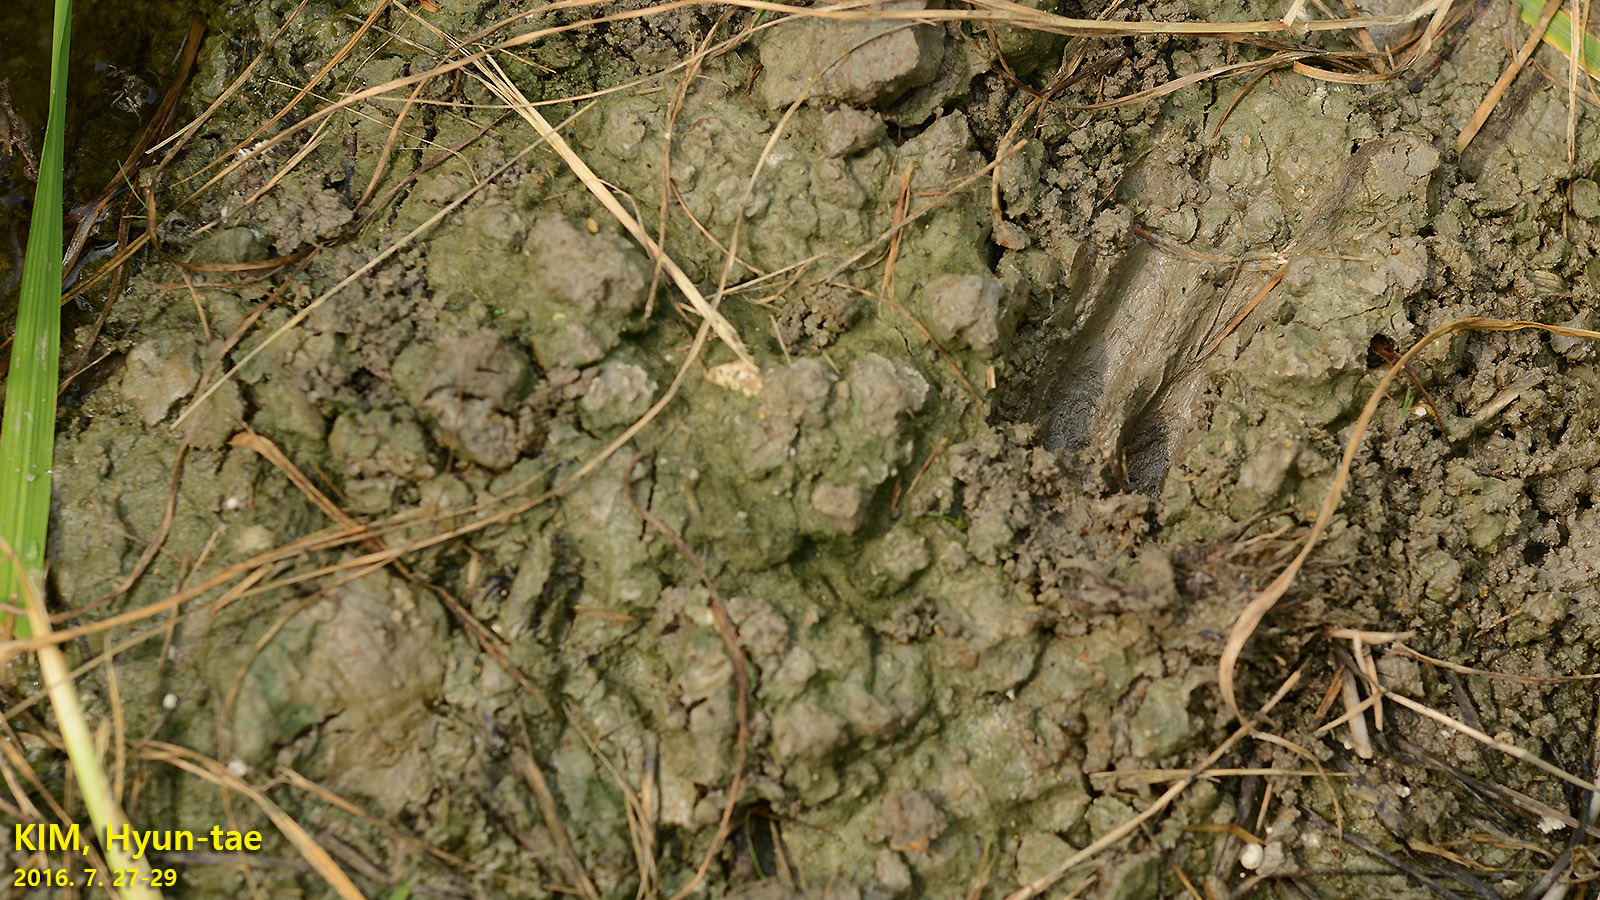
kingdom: Animalia
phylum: Chordata
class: Mammalia
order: Artiodactyla
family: Cervidae
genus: Hydropotes
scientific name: Hydropotes inermis
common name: Chinese water deer
